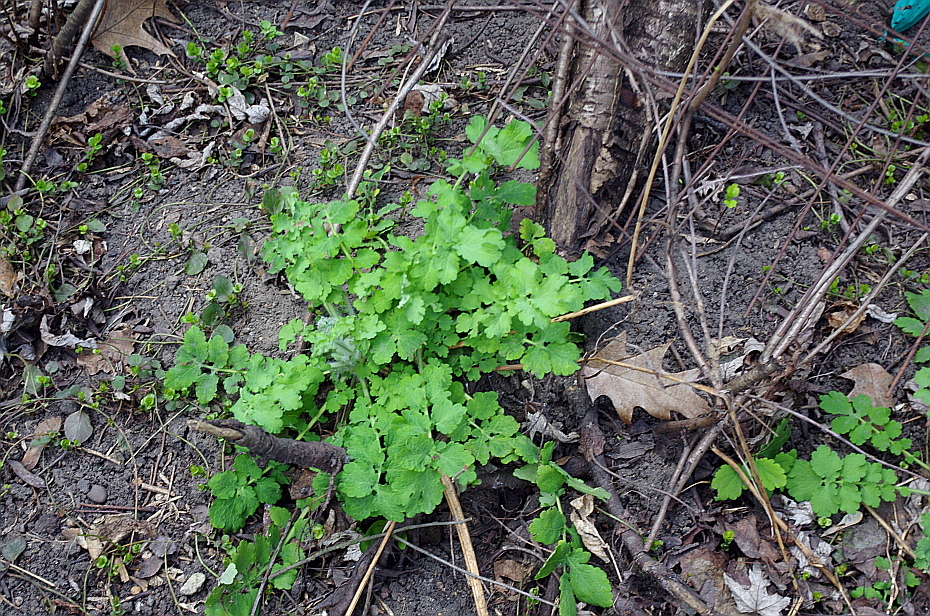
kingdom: Plantae
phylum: Tracheophyta
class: Magnoliopsida
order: Ranunculales
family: Papaveraceae
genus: Chelidonium
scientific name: Chelidonium majus
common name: Greater celandine
